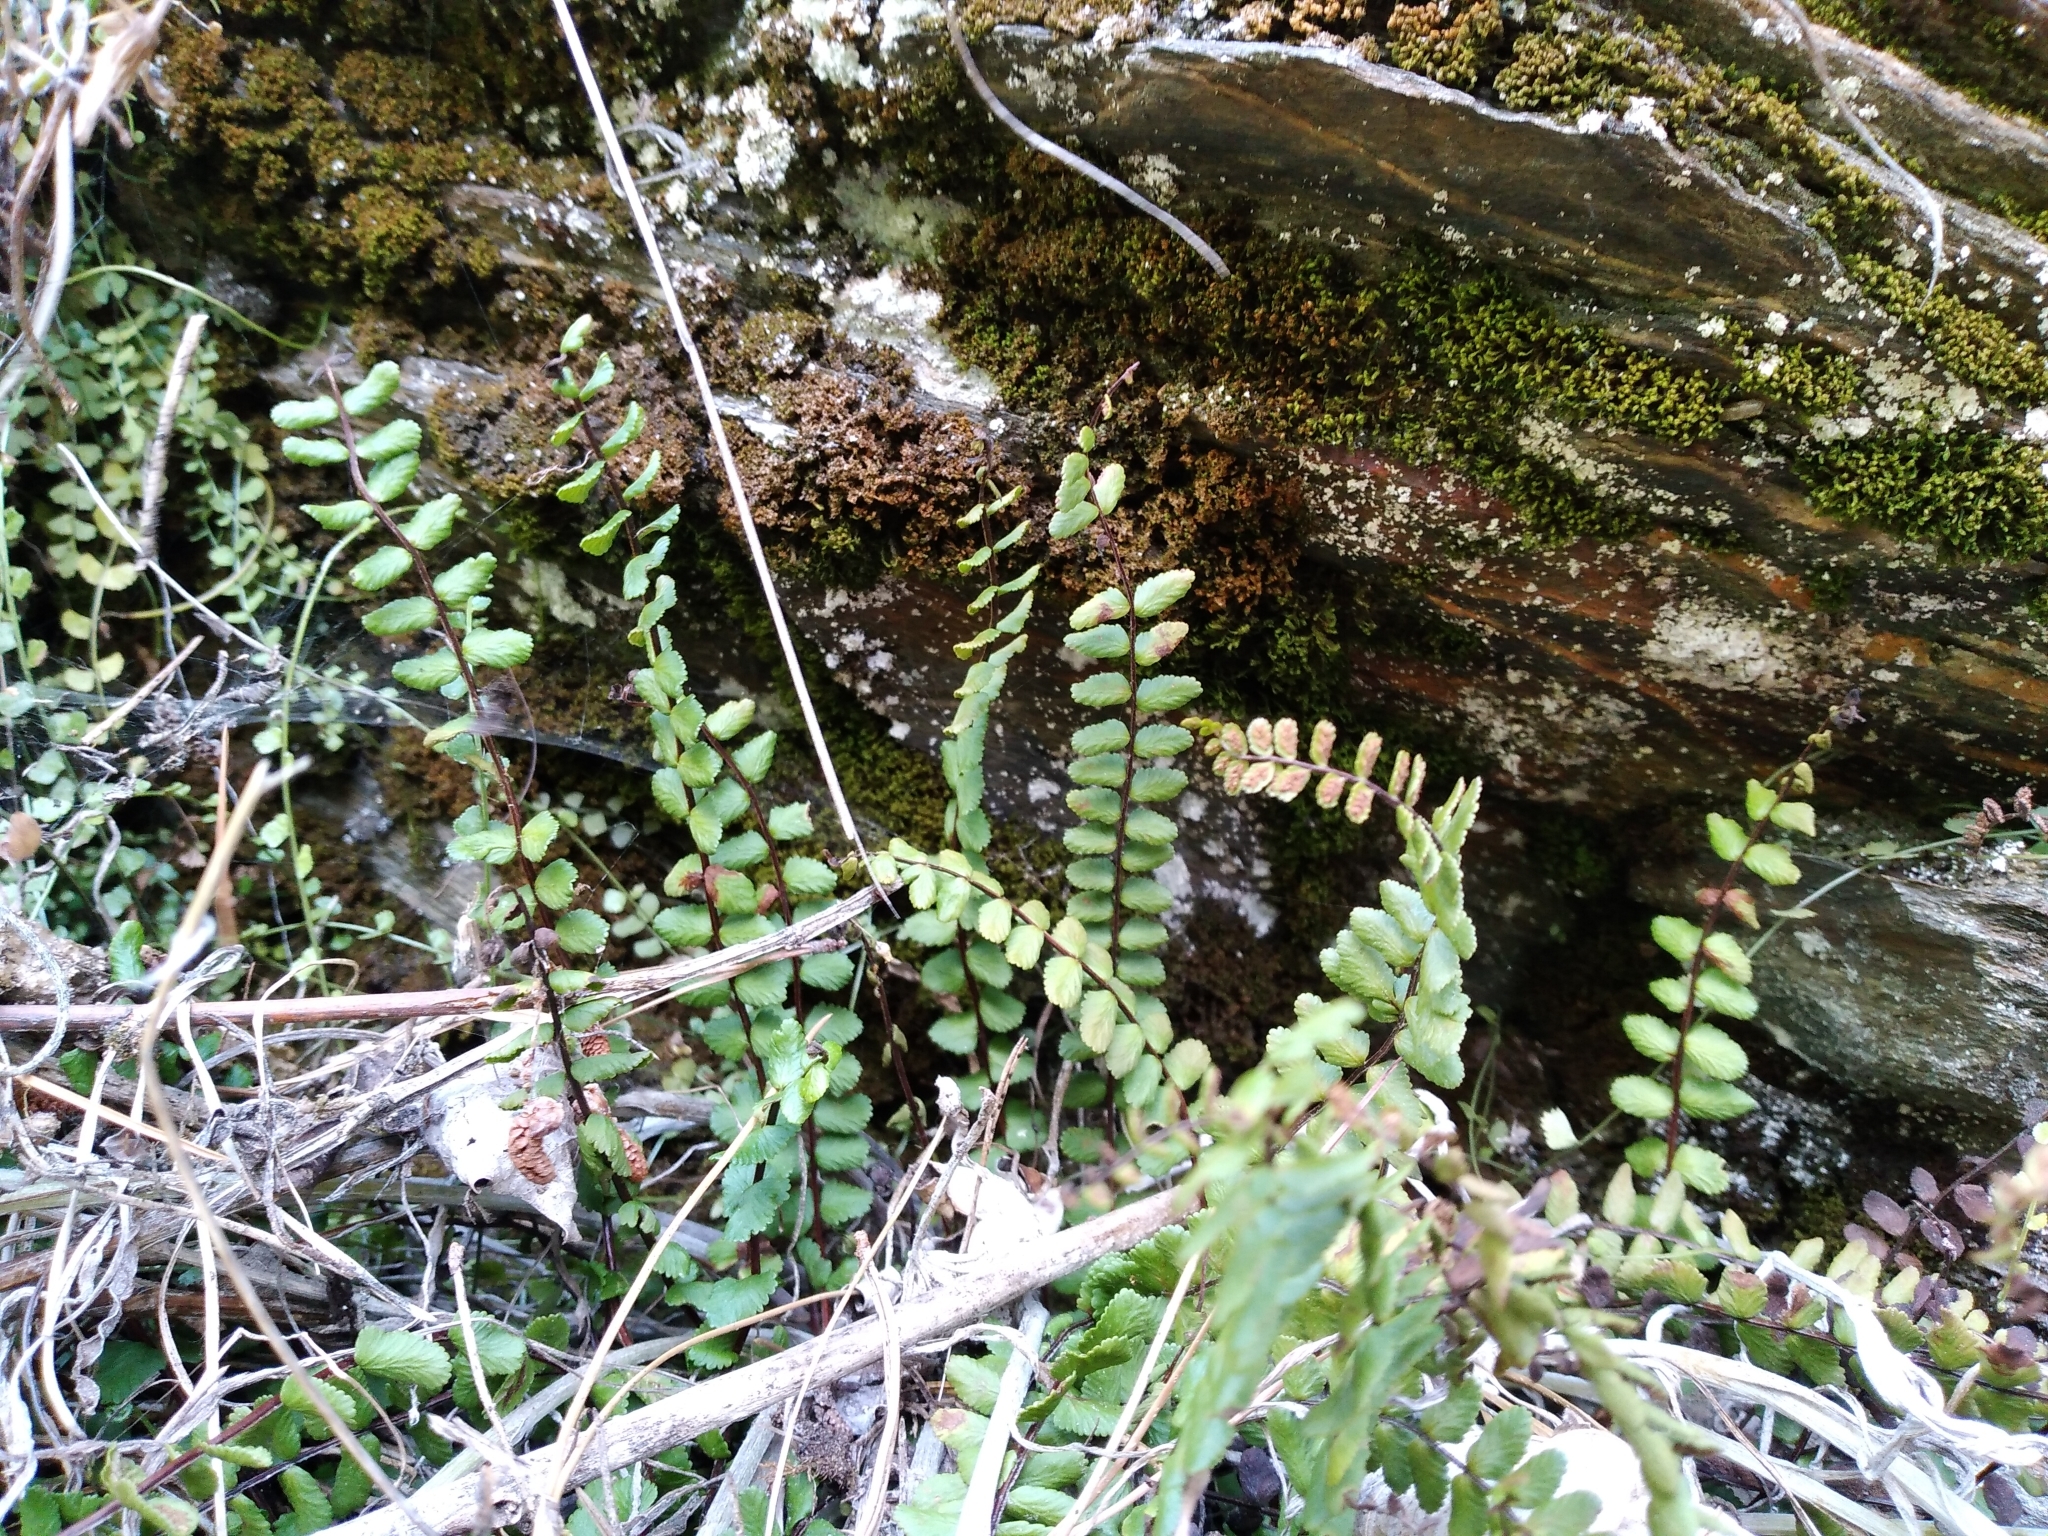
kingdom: Plantae
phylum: Tracheophyta
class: Polypodiopsida
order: Polypodiales
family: Aspleniaceae
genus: Asplenium
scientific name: Asplenium trichomanes
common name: Maidenhair spleenwort
